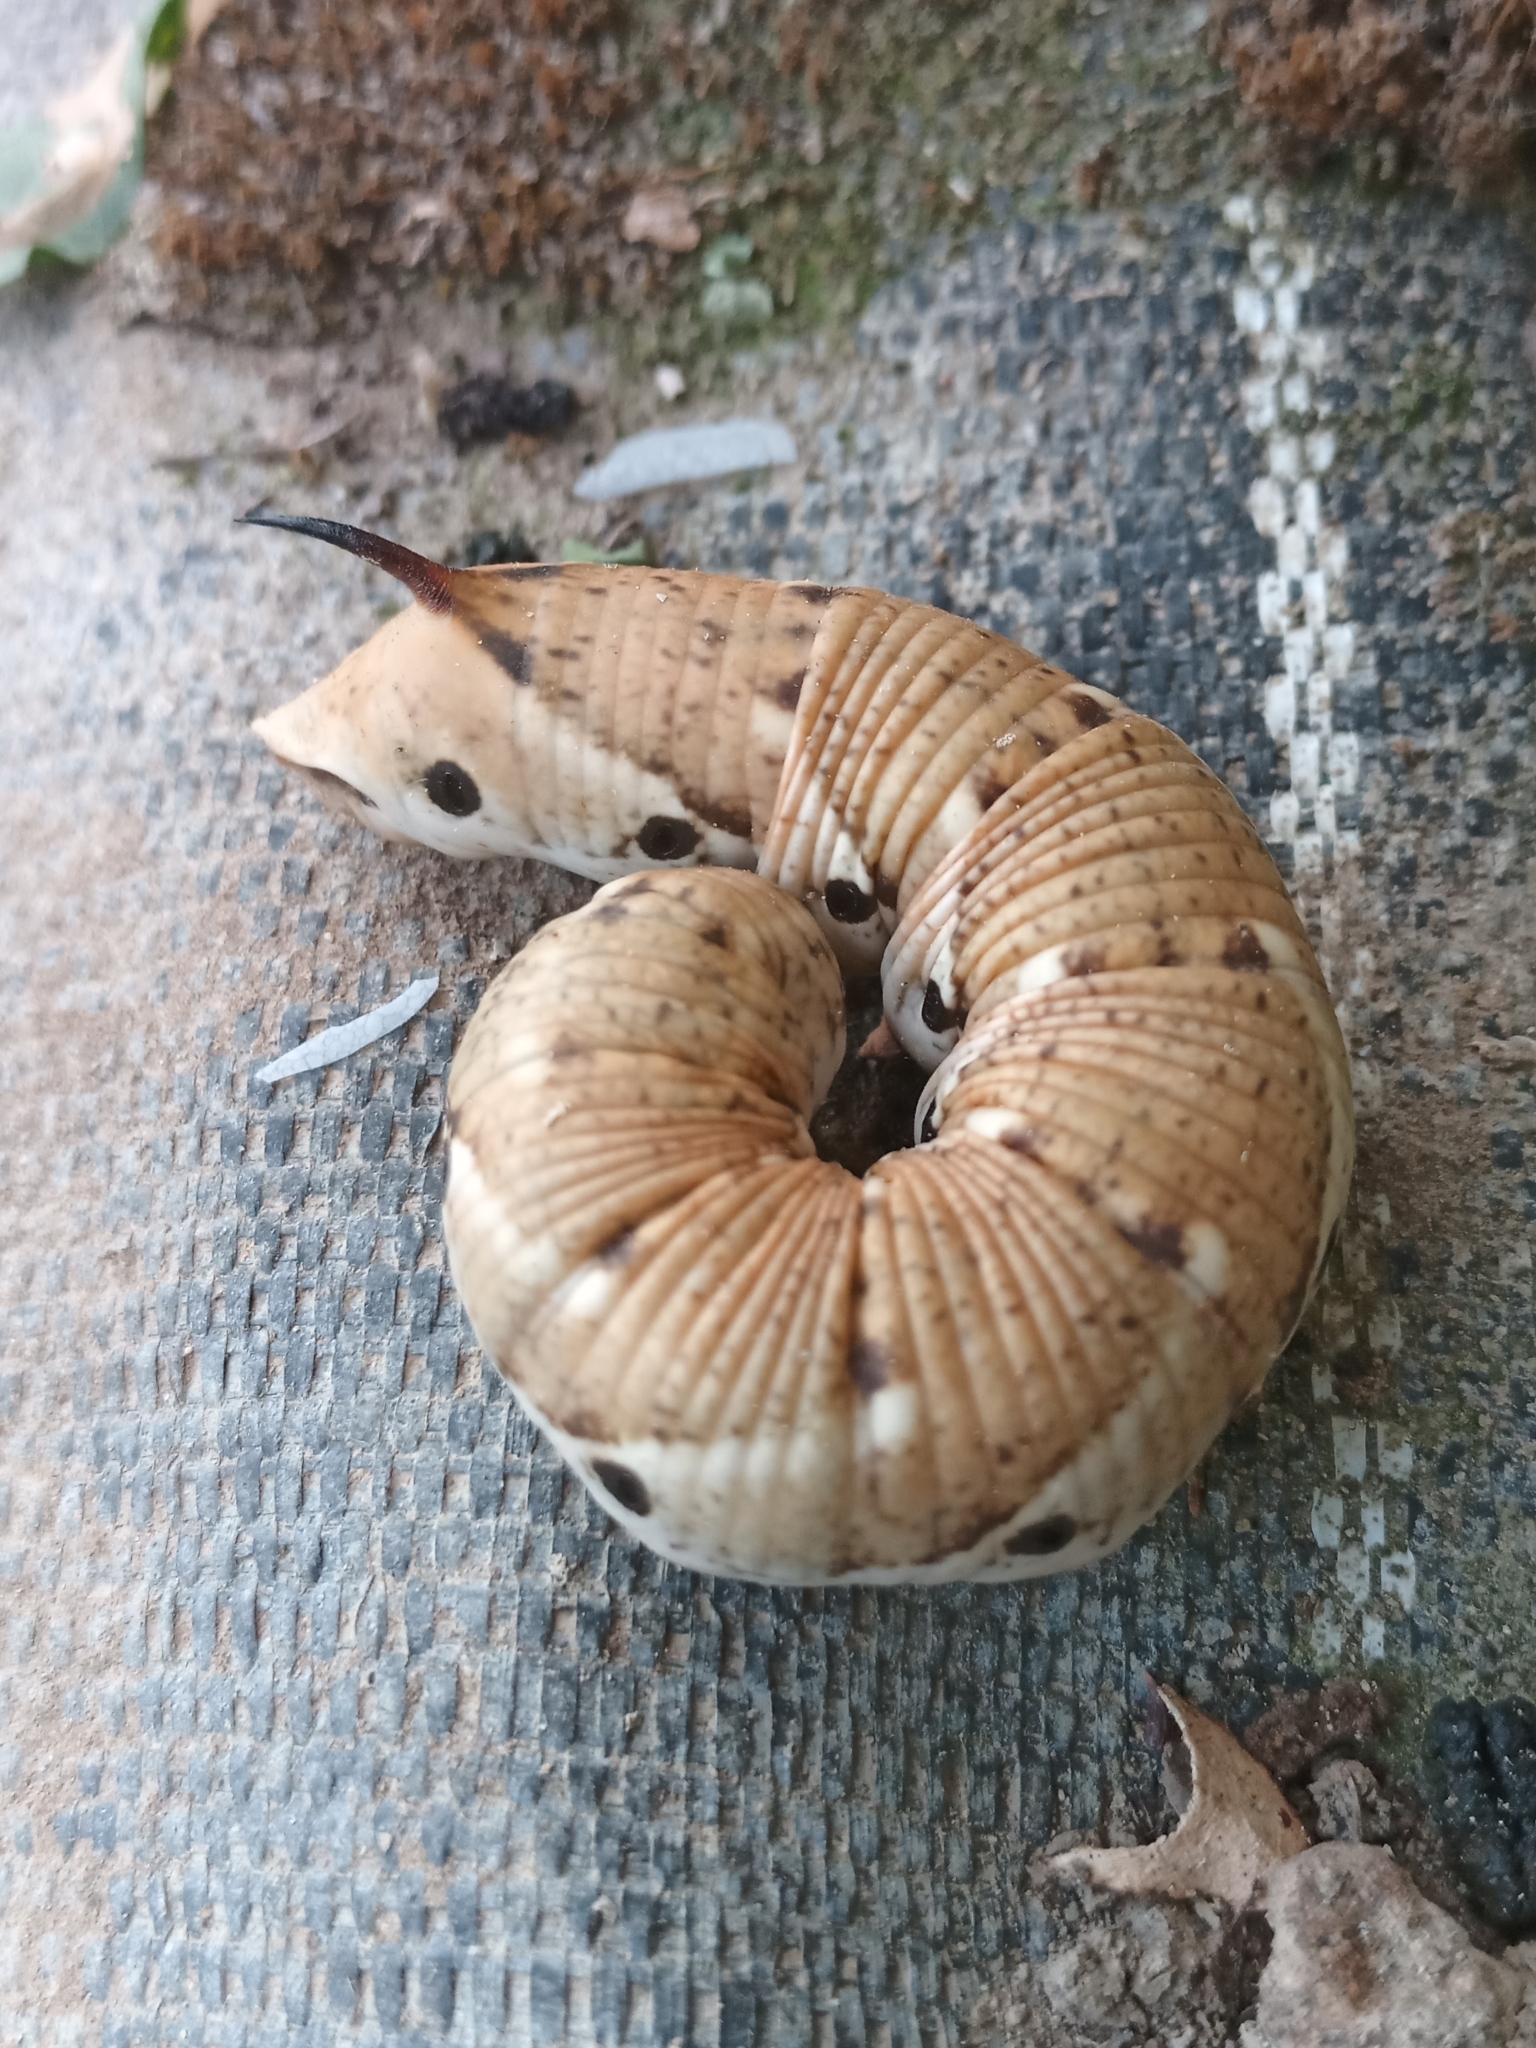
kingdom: Animalia
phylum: Arthropoda
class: Insecta
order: Lepidoptera
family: Sphingidae
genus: Agrius
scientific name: Agrius convolvuli
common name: Convolvulus hawkmoth
